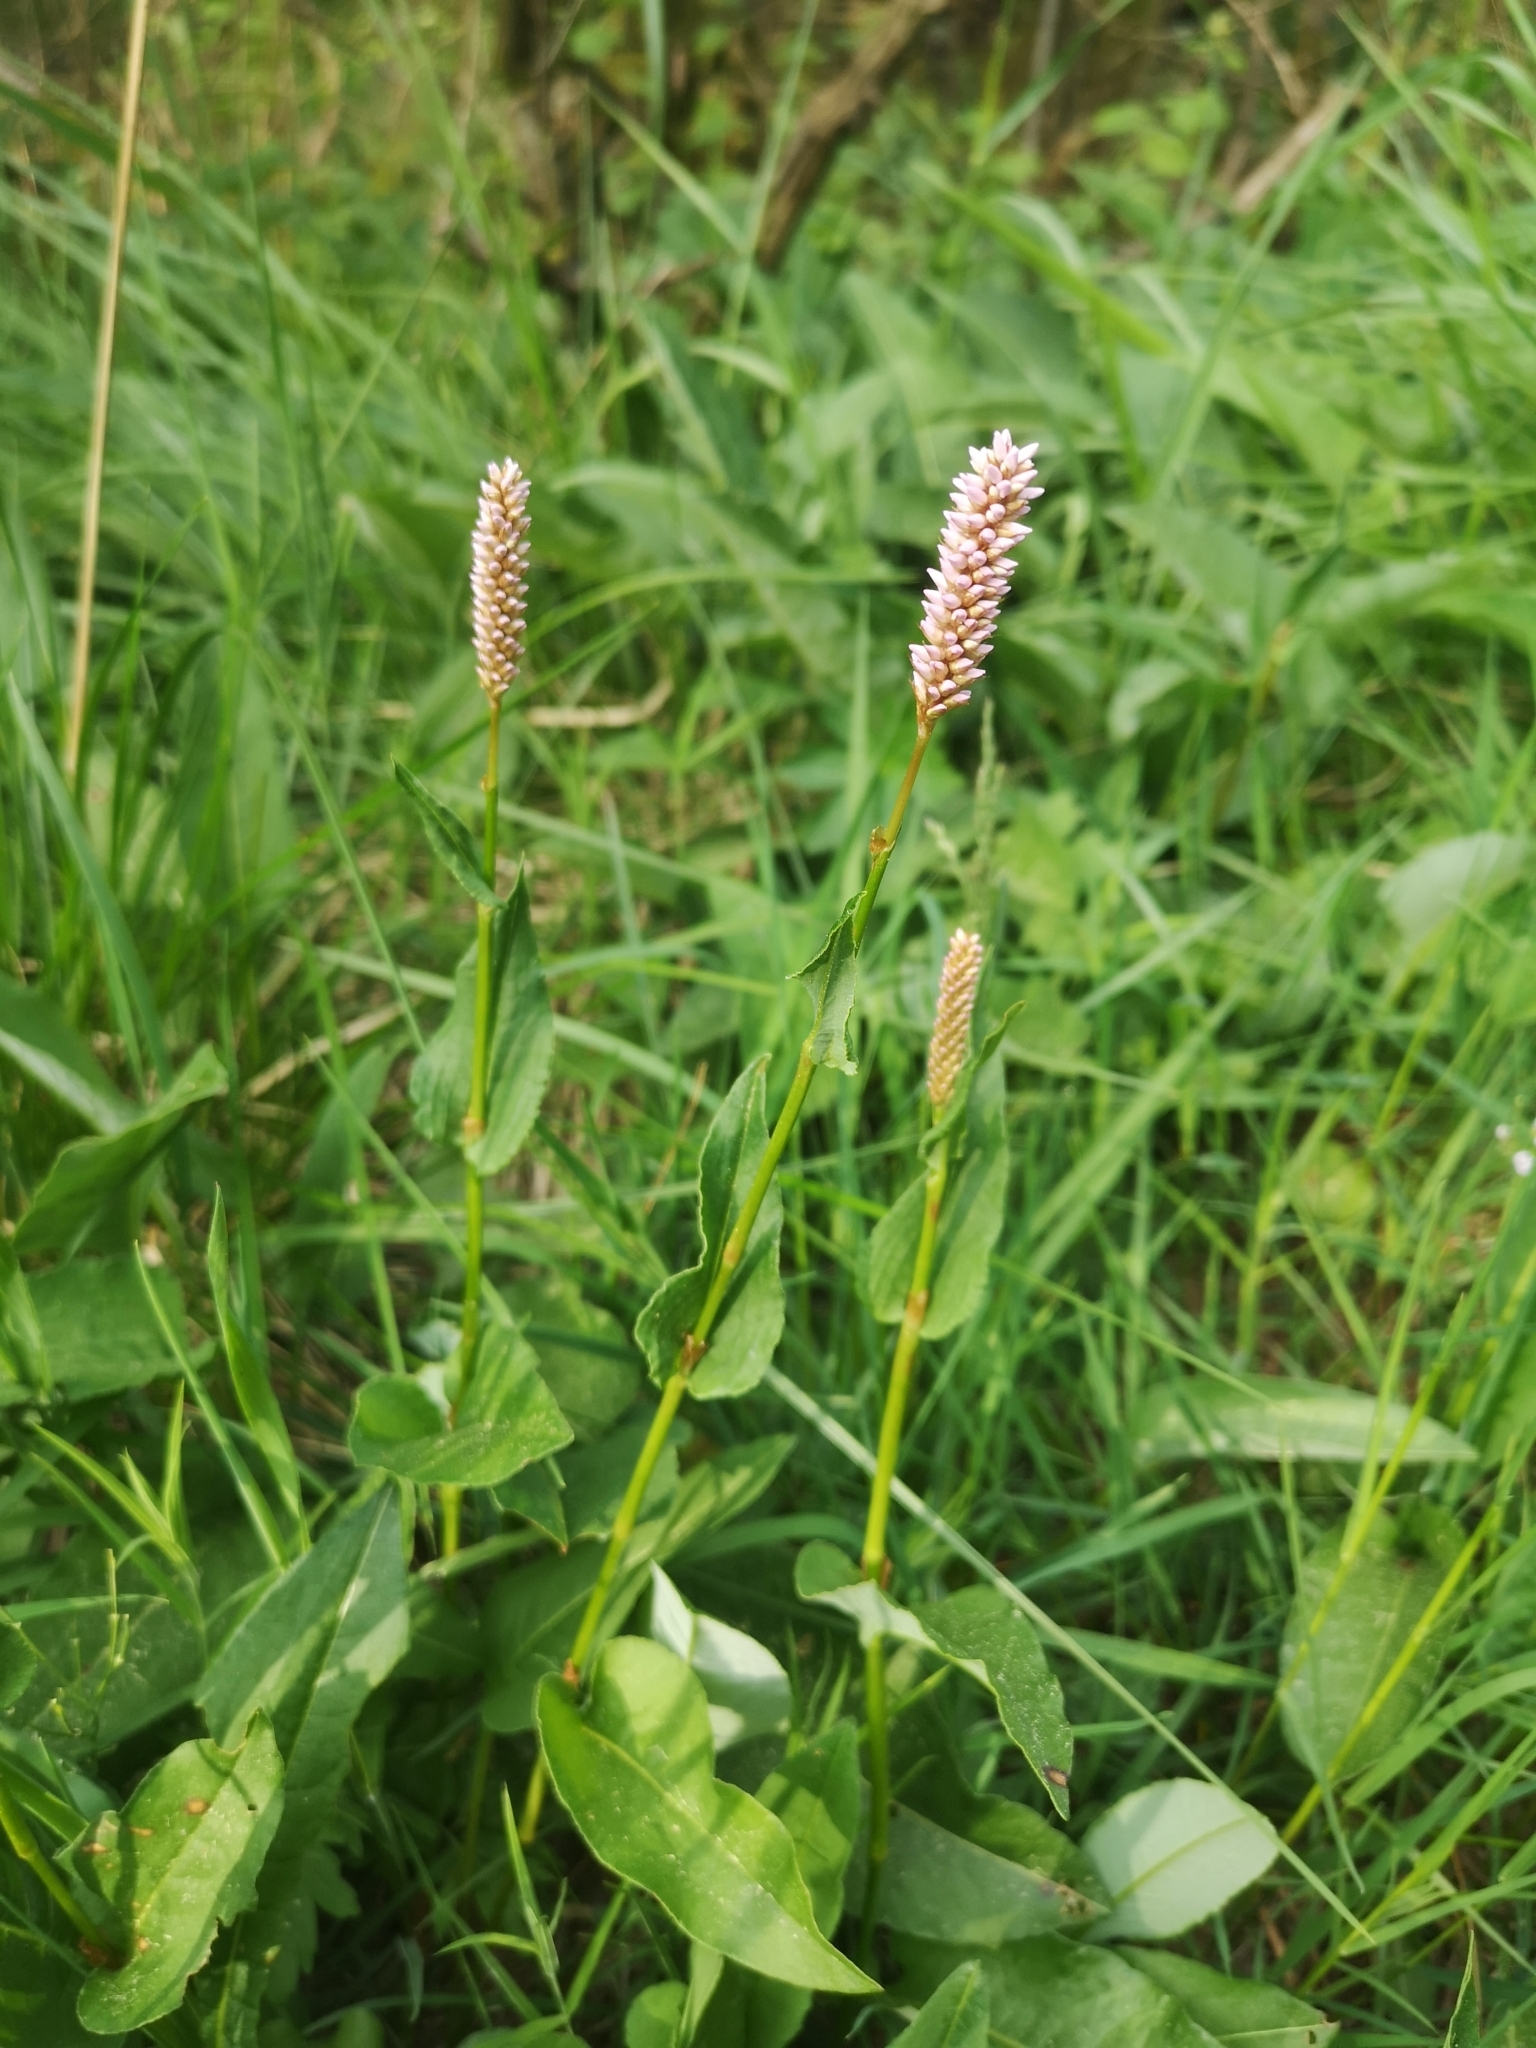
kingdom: Plantae
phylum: Tracheophyta
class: Magnoliopsida
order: Caryophyllales
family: Polygonaceae
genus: Bistorta
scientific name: Bistorta officinalis
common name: Common bistort
